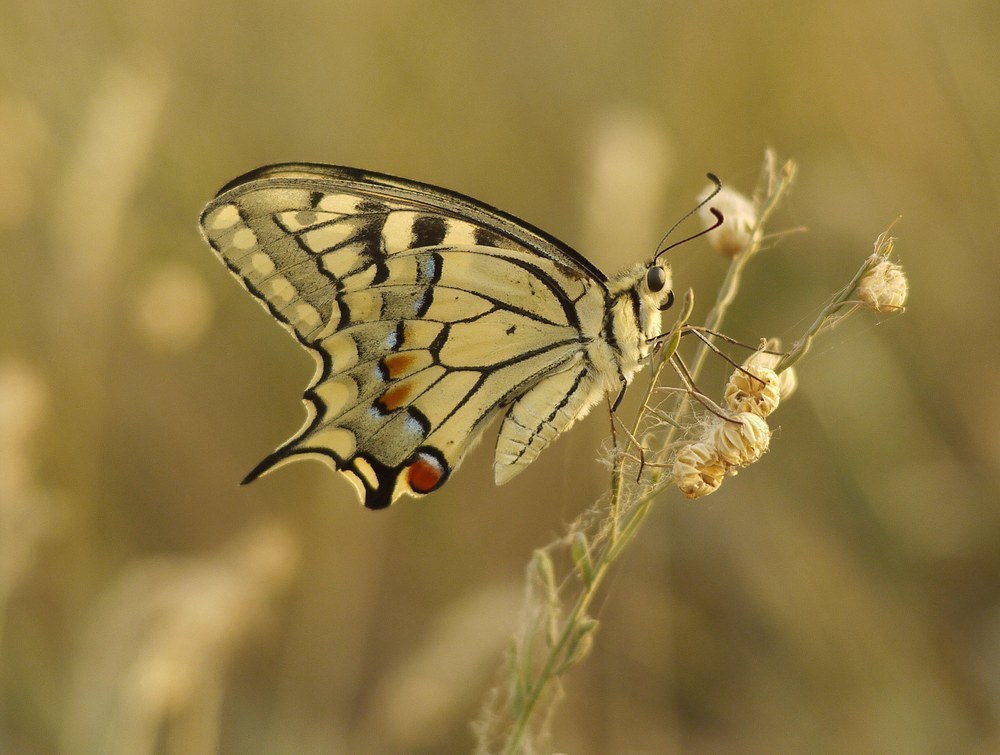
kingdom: Animalia
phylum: Arthropoda
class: Insecta
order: Lepidoptera
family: Papilionidae
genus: Papilio
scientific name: Papilio machaon
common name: Swallowtail
